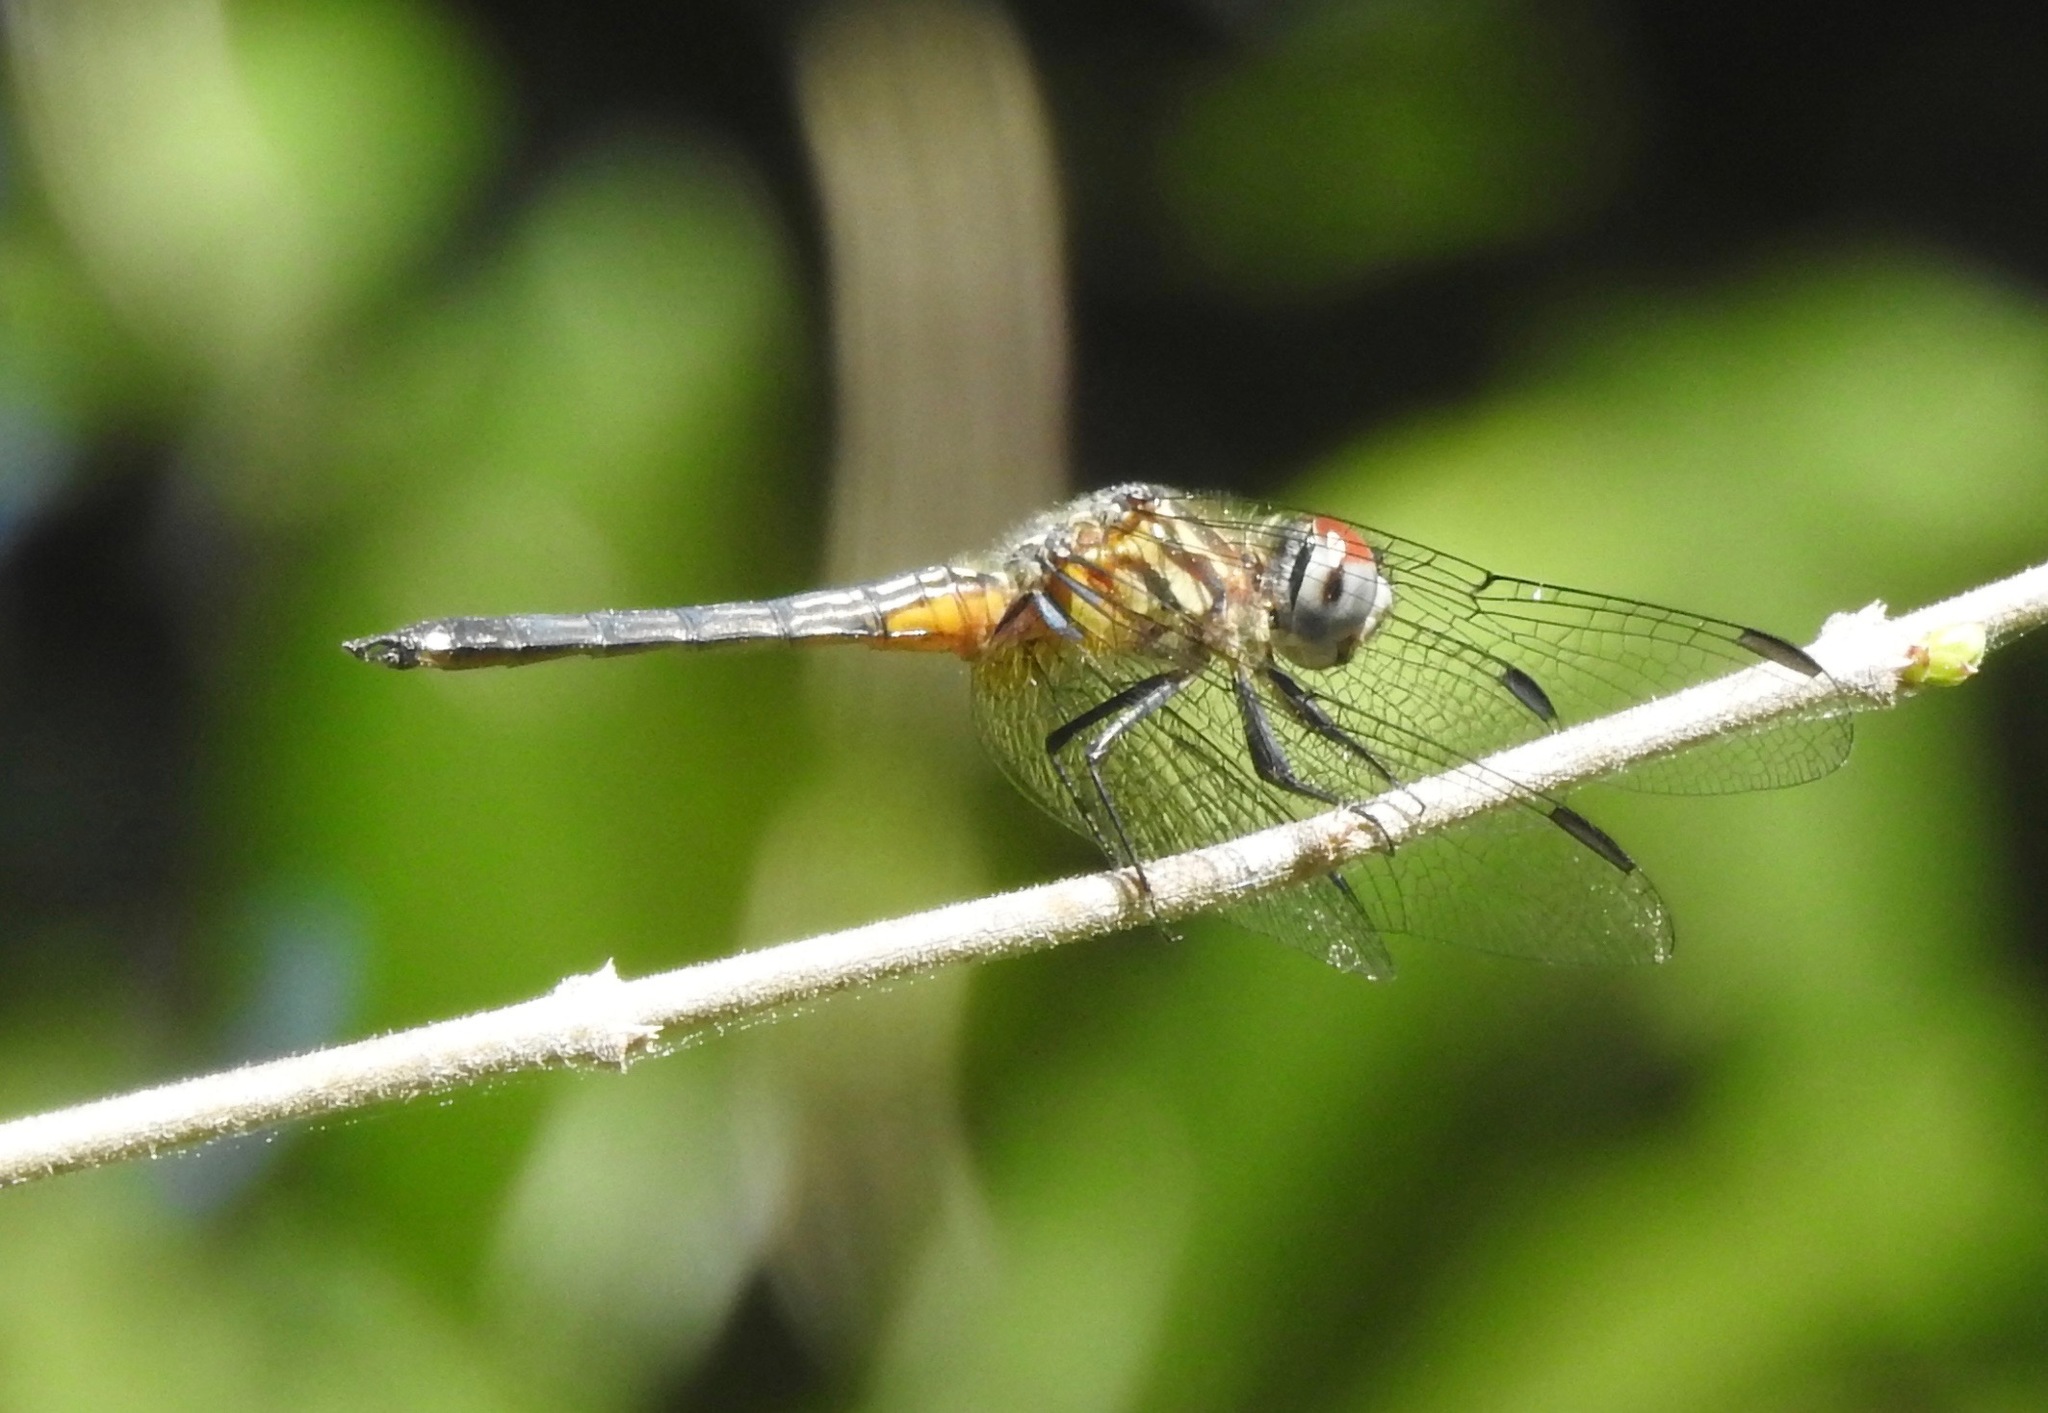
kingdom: Animalia
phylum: Arthropoda
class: Insecta
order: Odonata
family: Libellulidae
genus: Pachydiplax
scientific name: Pachydiplax longipennis
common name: Blue dasher
